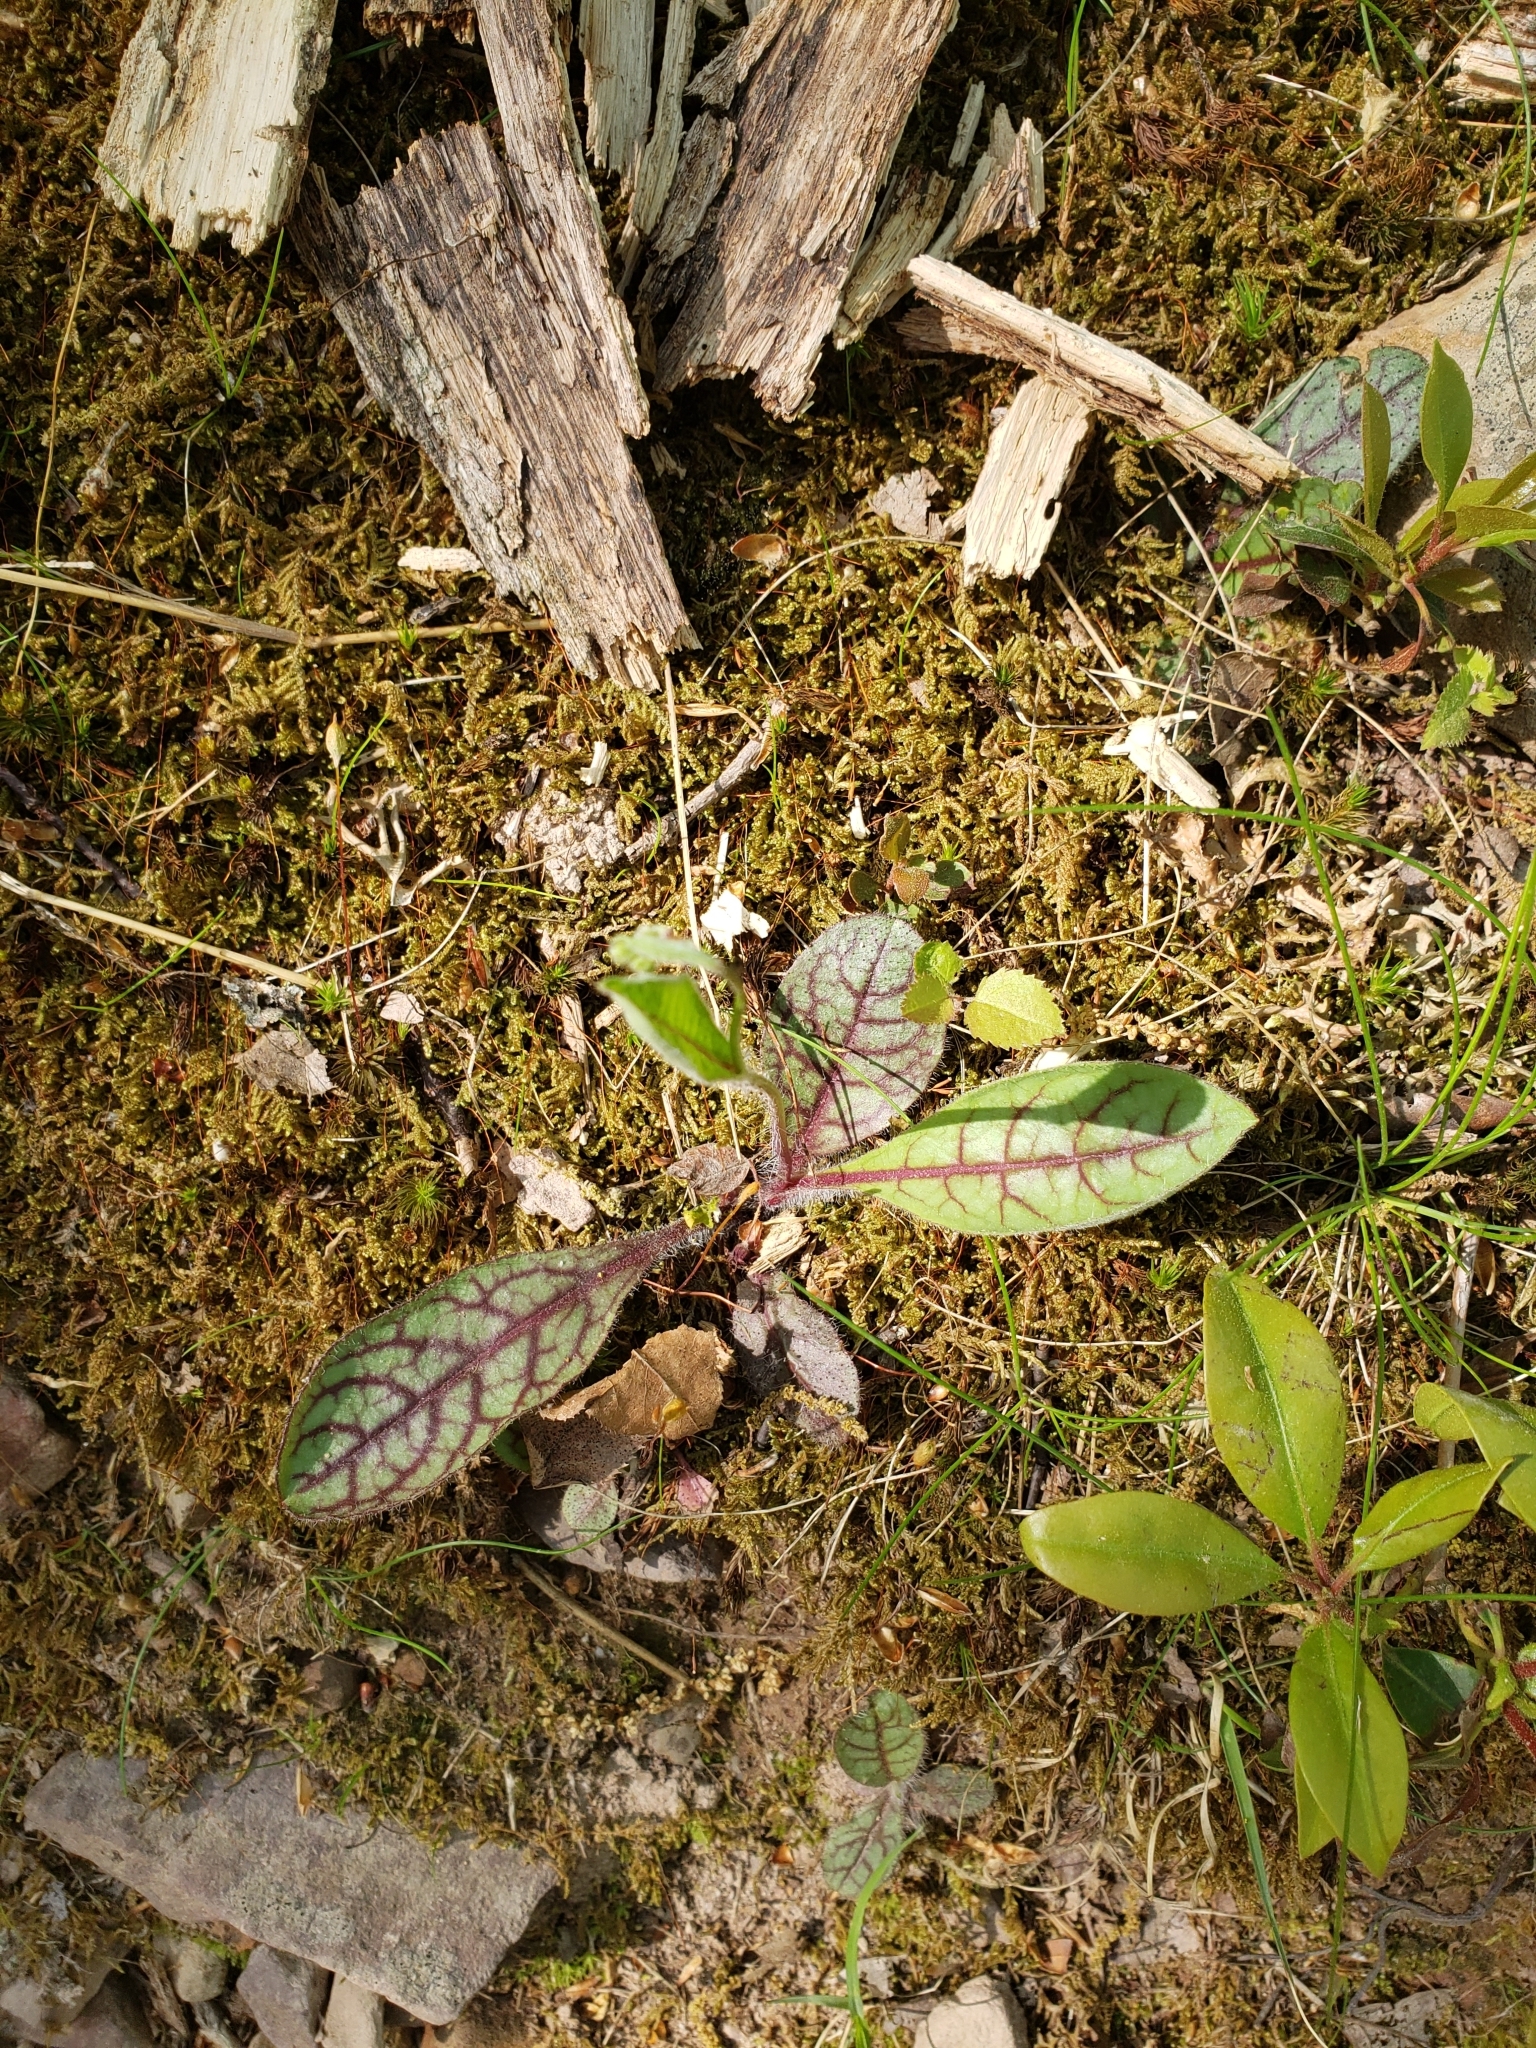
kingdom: Plantae
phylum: Tracheophyta
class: Magnoliopsida
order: Asterales
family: Asteraceae
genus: Hieracium
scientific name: Hieracium venosum
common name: Rattlesnake hawkweed
